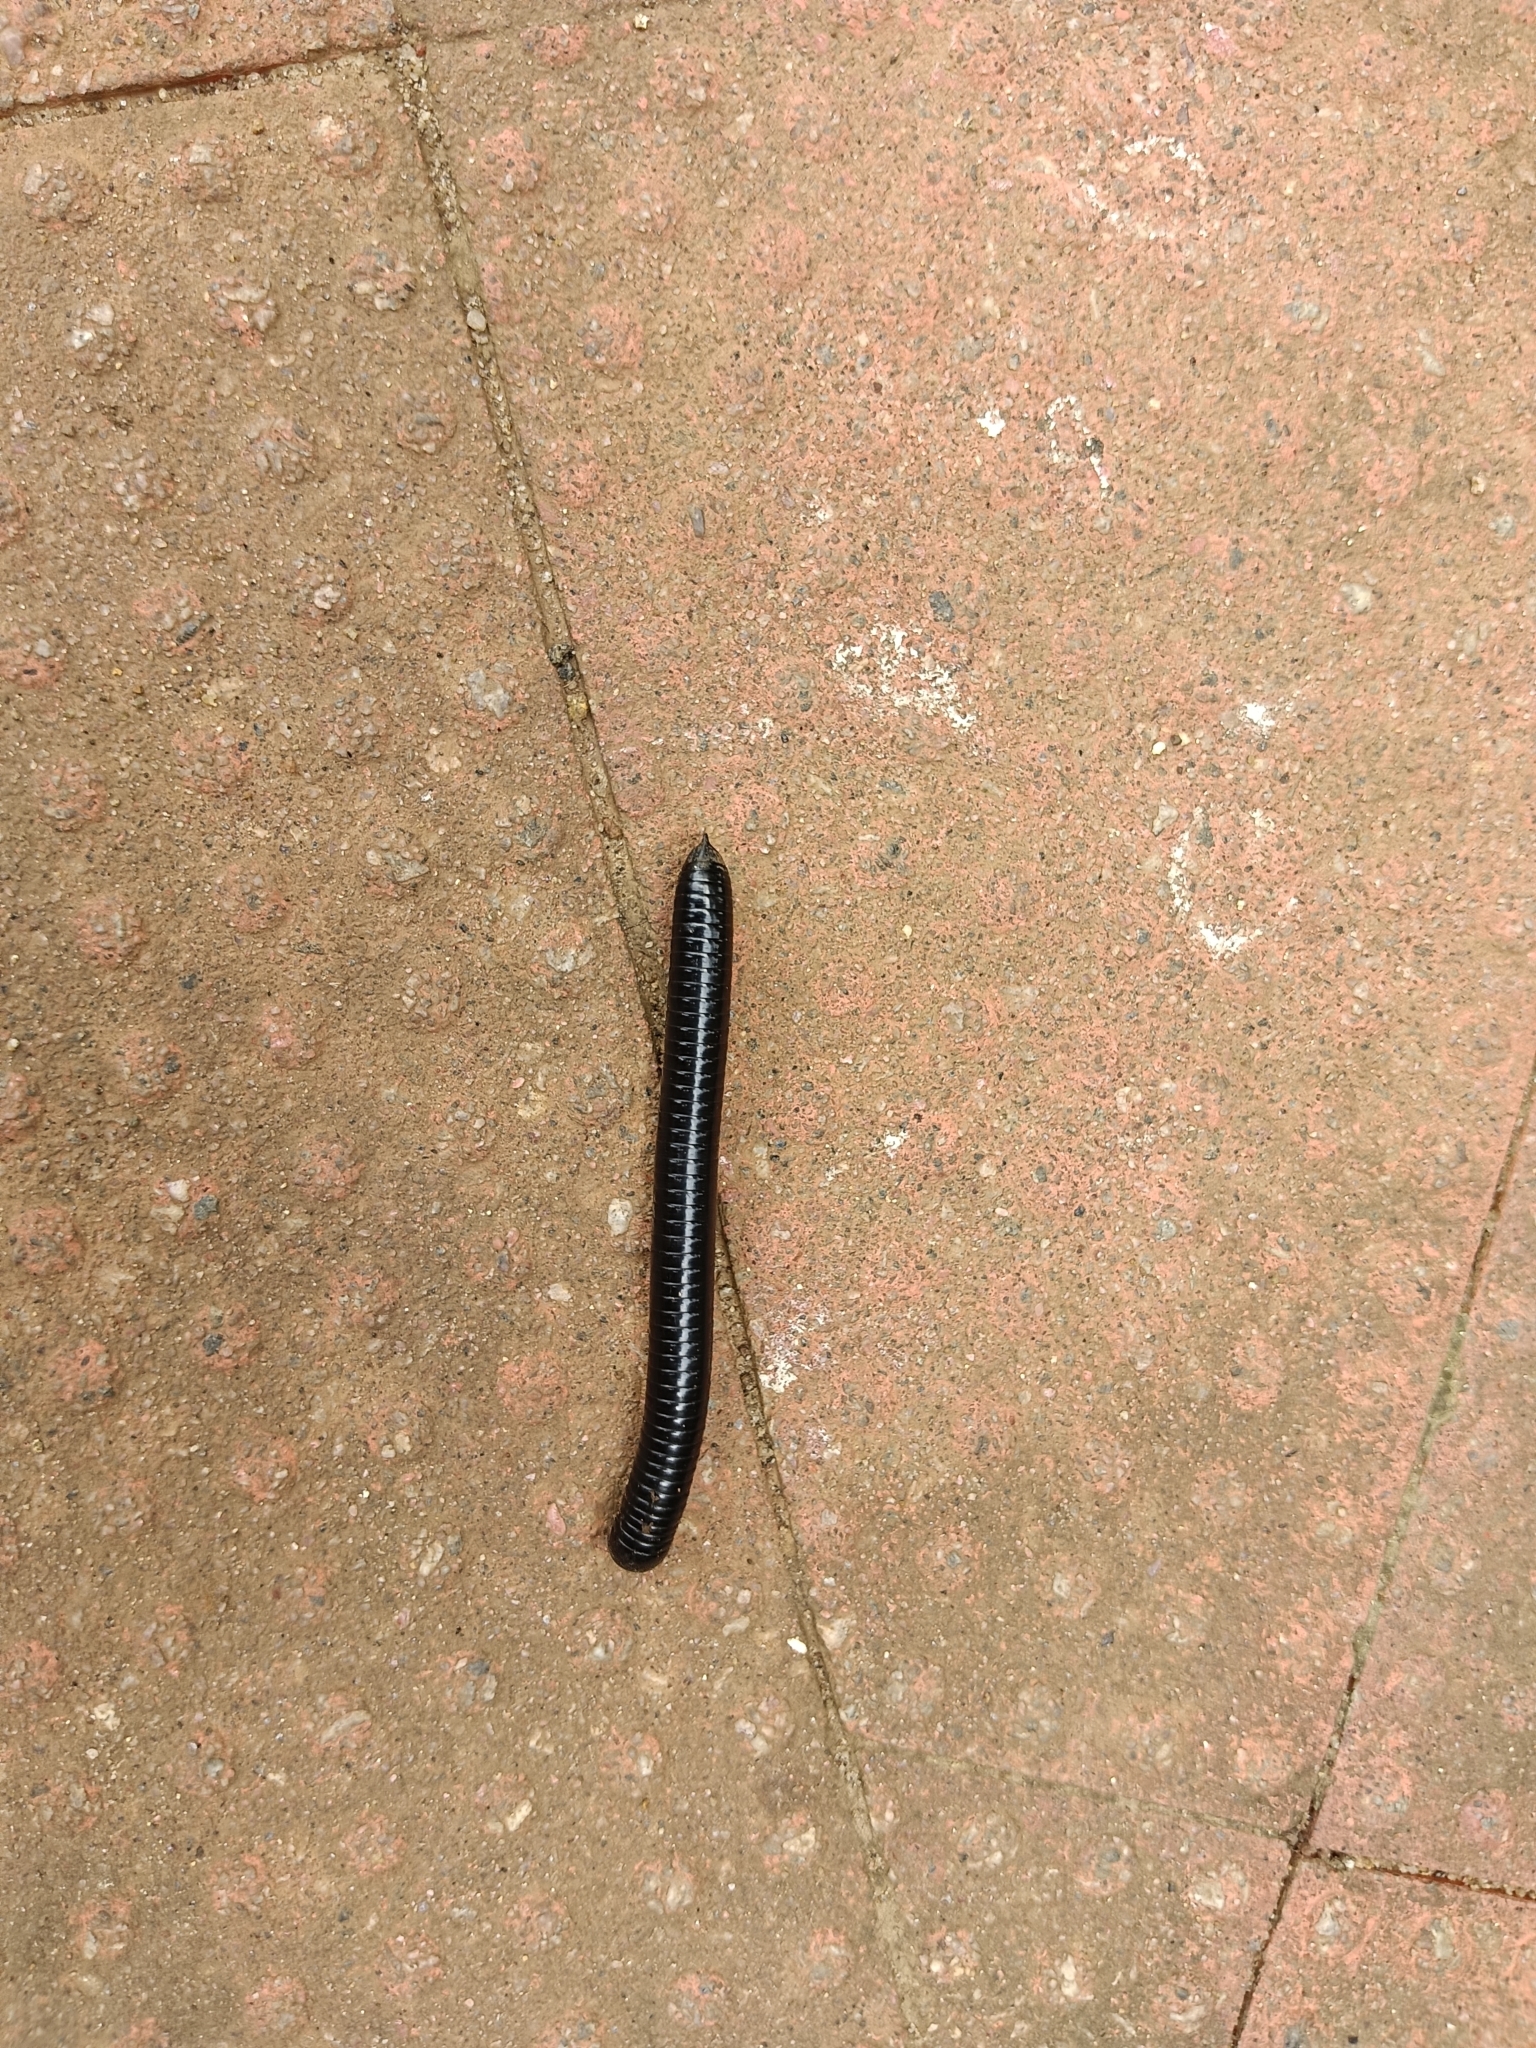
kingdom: Animalia
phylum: Arthropoda
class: Diplopoda
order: Spirostreptida
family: Harpagophoridae
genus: Phyllogonostreptus
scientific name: Phyllogonostreptus nigrolabiatus
